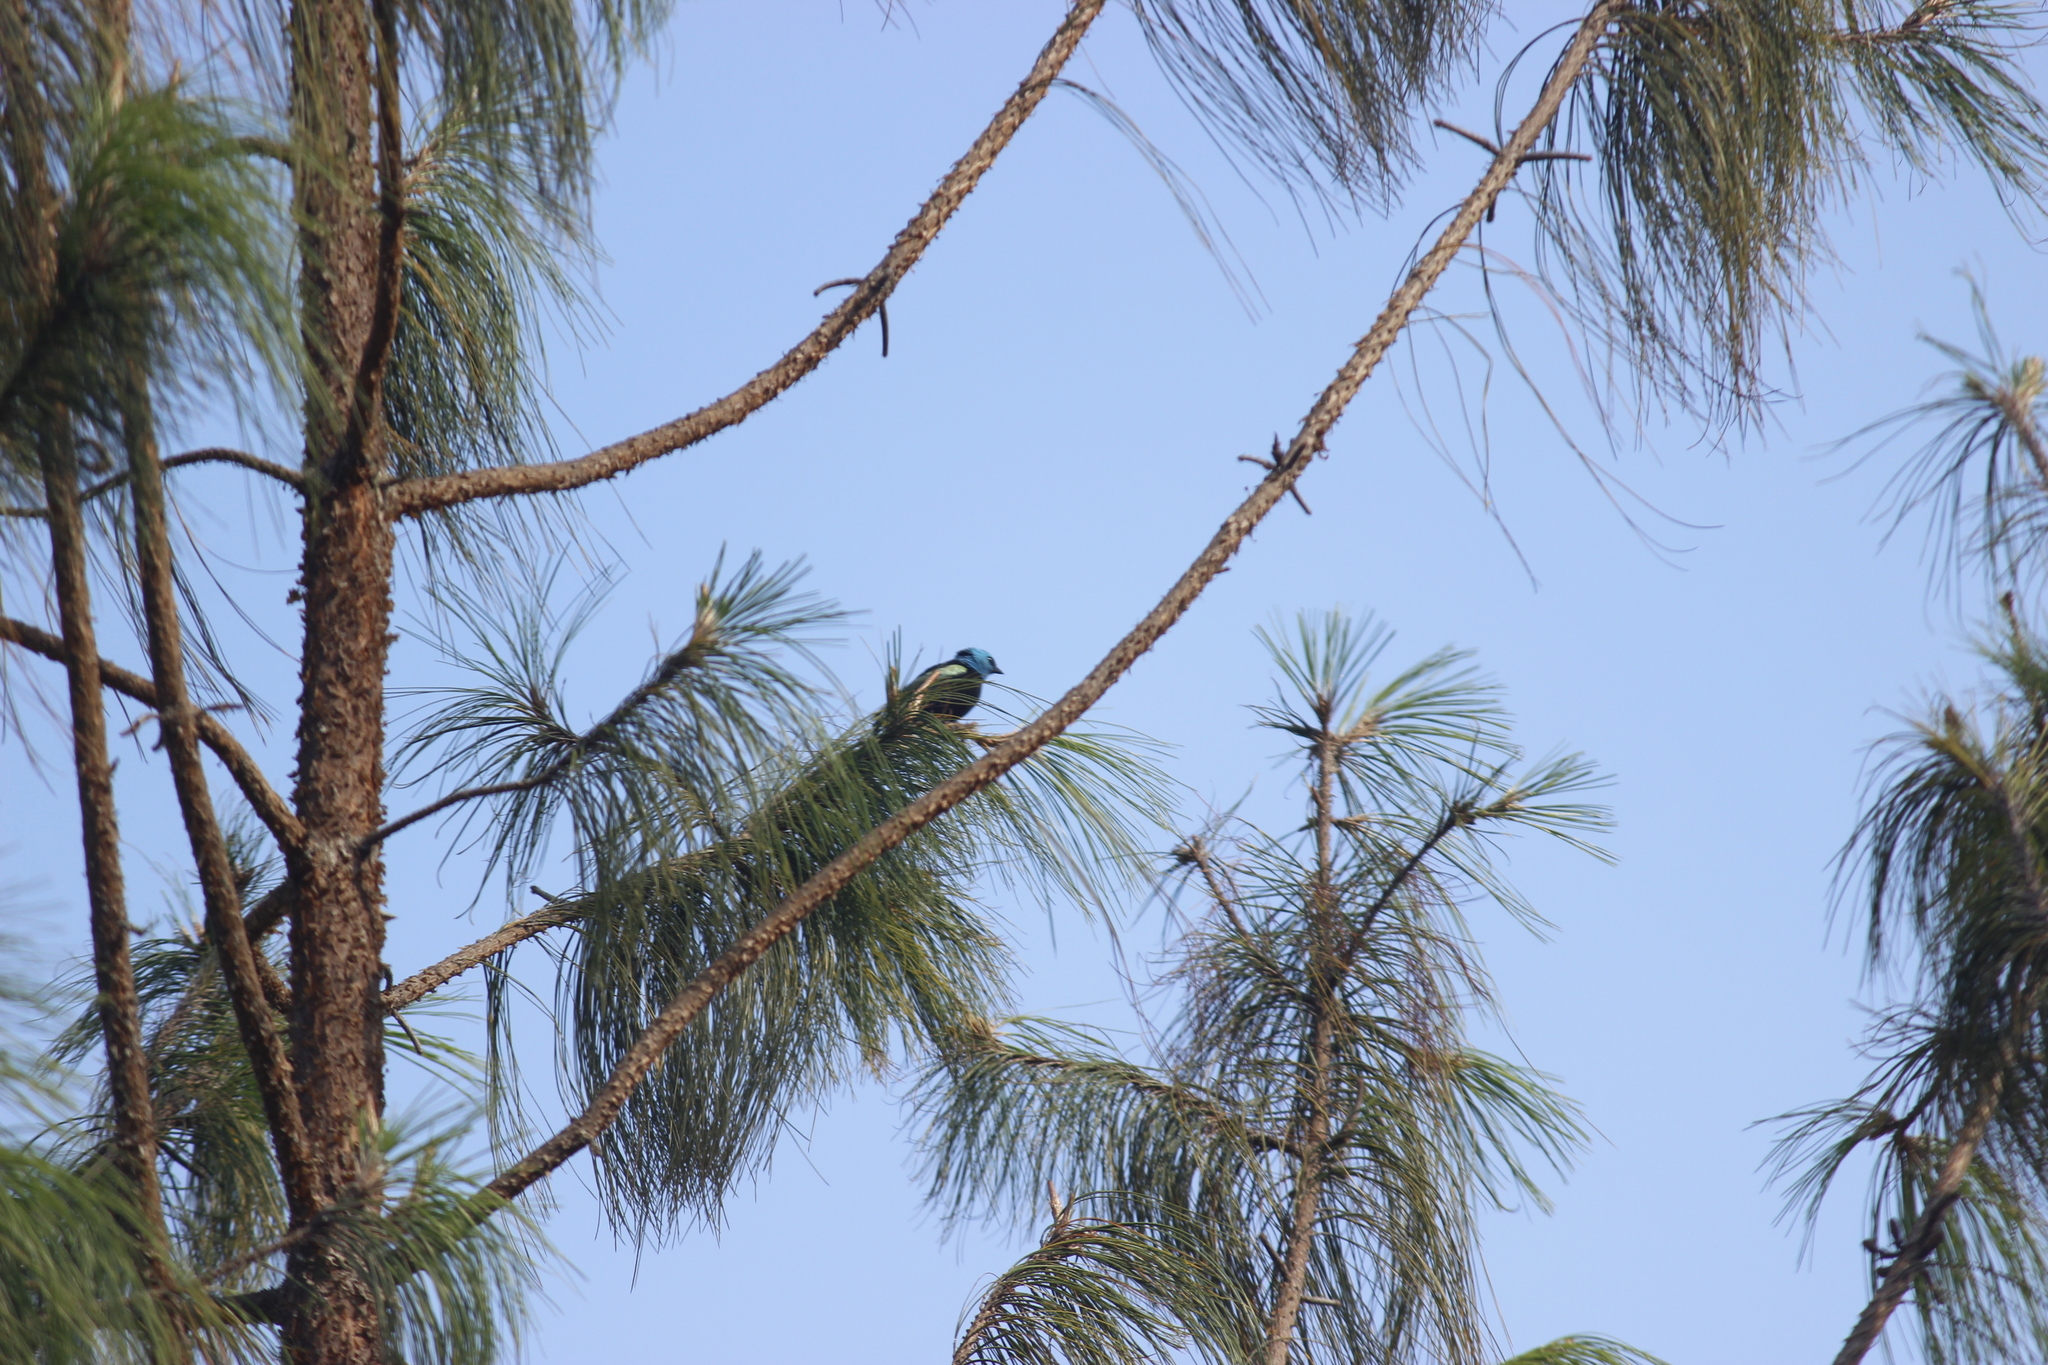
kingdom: Animalia
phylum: Chordata
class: Aves
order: Passeriformes
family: Thraupidae
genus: Stilpnia
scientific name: Stilpnia cyanicollis
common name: Blue-necked tanager
